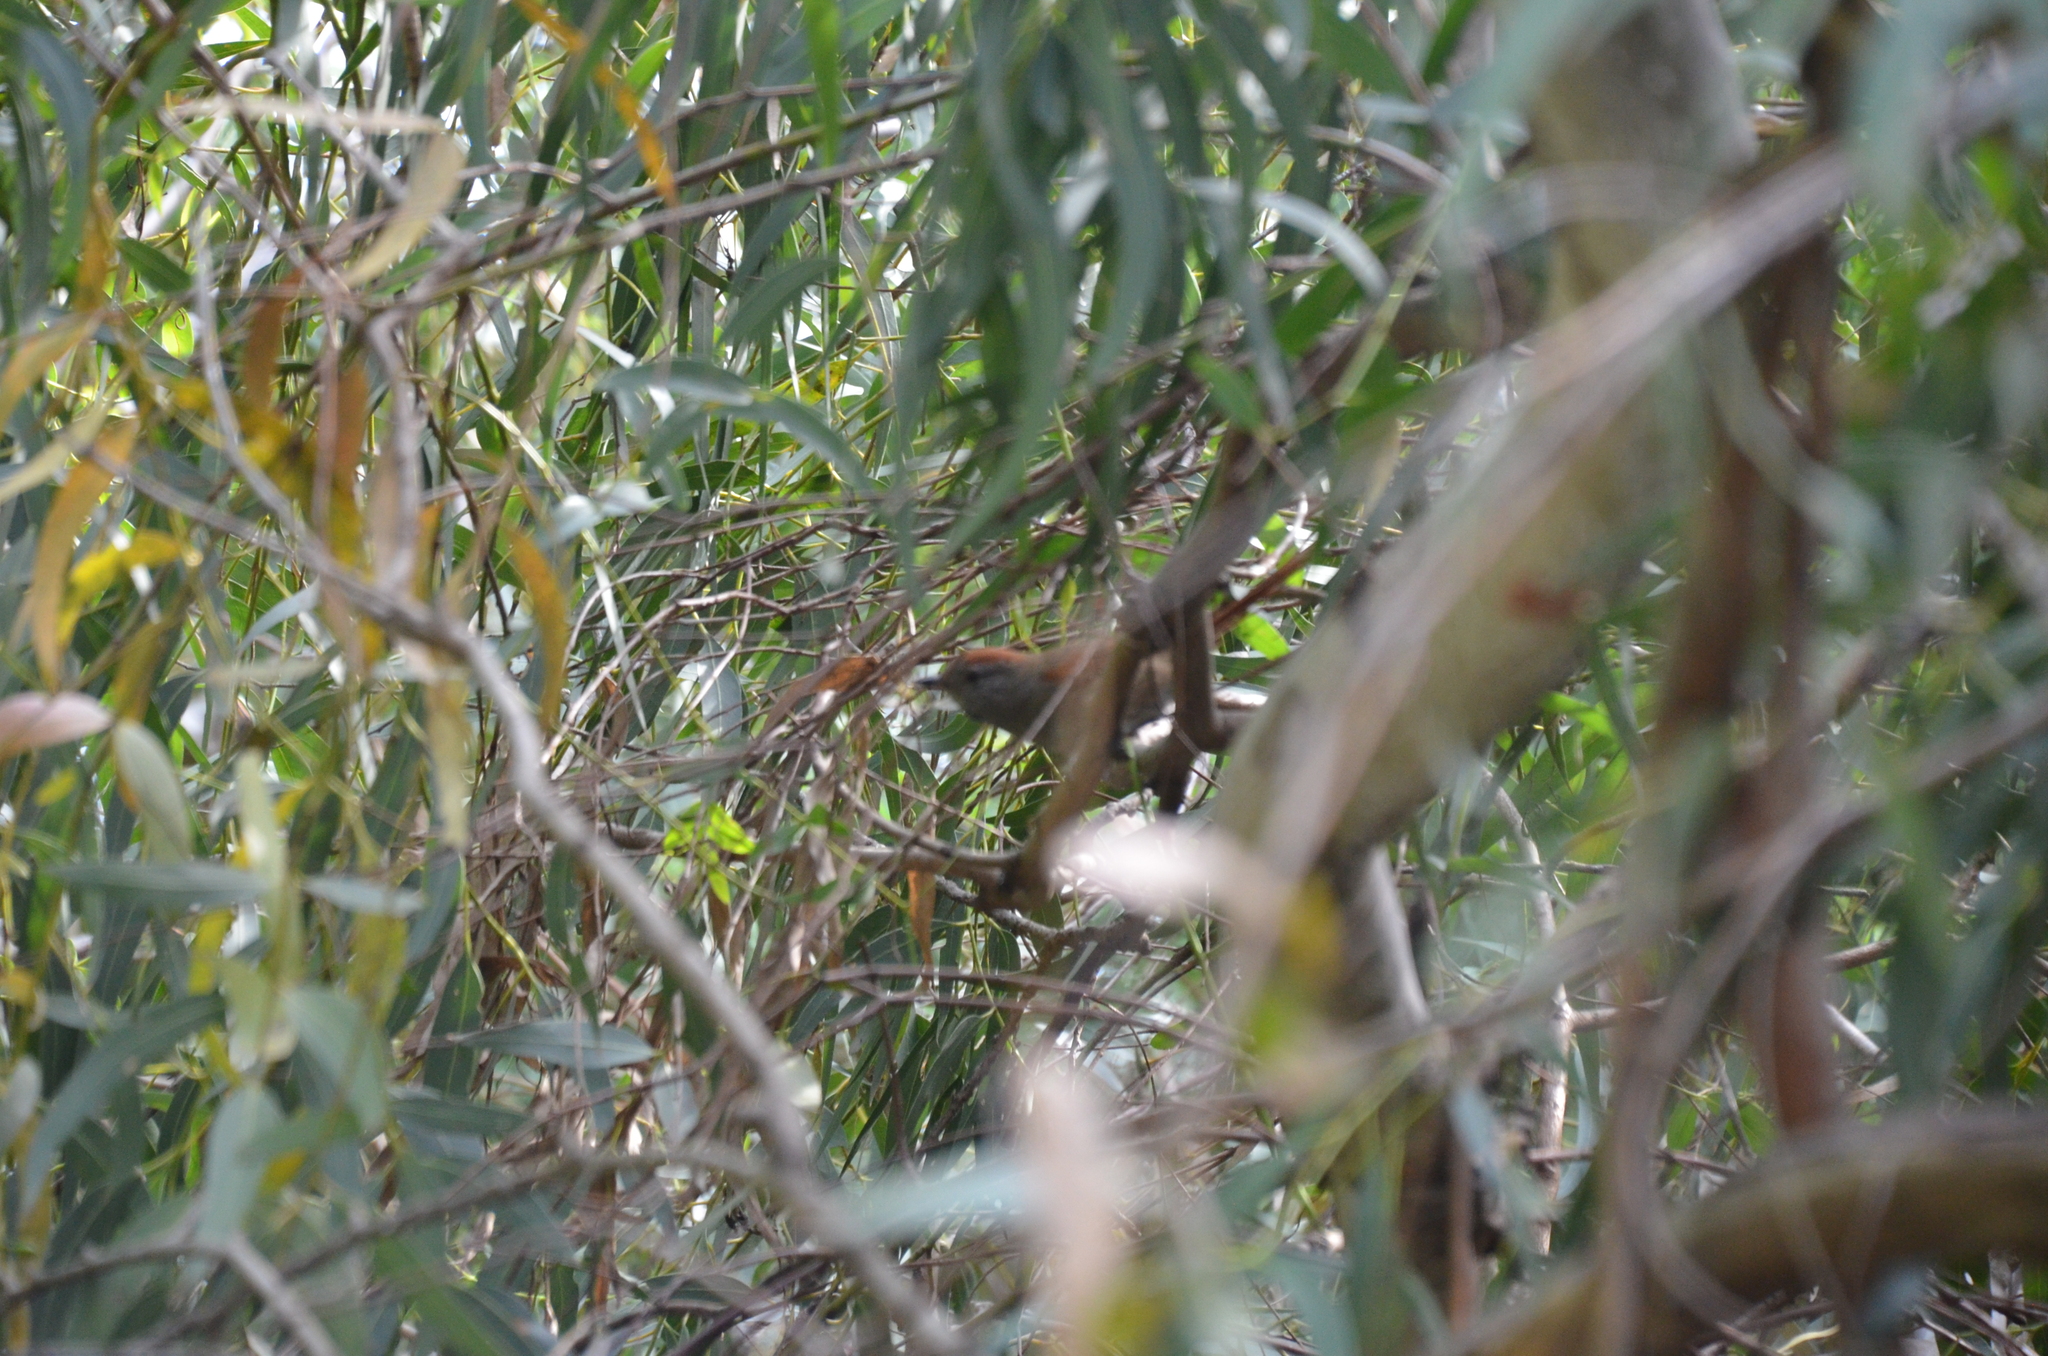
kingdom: Animalia
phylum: Chordata
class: Aves
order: Passeriformes
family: Furnariidae
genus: Synallaxis
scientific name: Synallaxis frontalis
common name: Sooty-fronted spinetail
